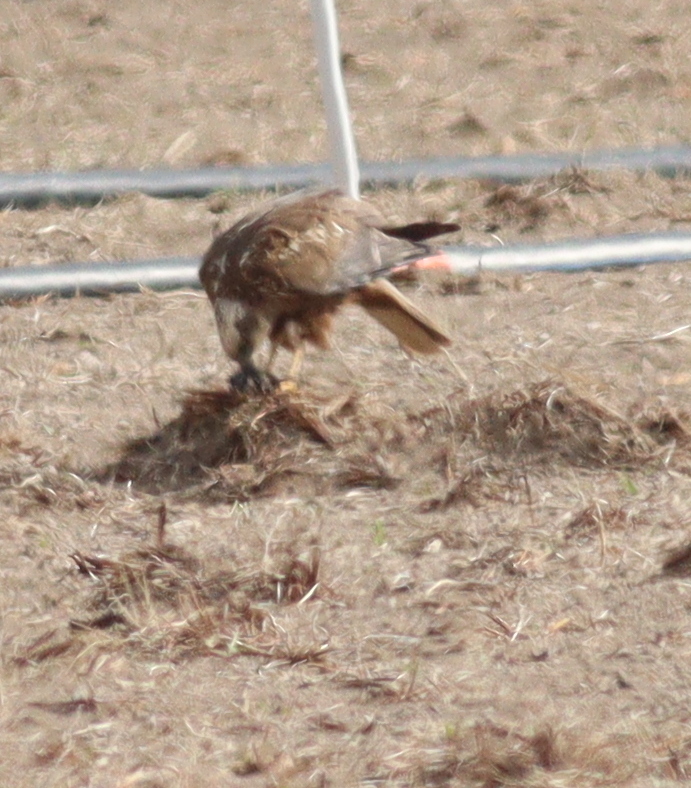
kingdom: Animalia
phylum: Chordata
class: Aves
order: Accipitriformes
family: Accipitridae
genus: Circus
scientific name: Circus aeruginosus
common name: Western marsh harrier
